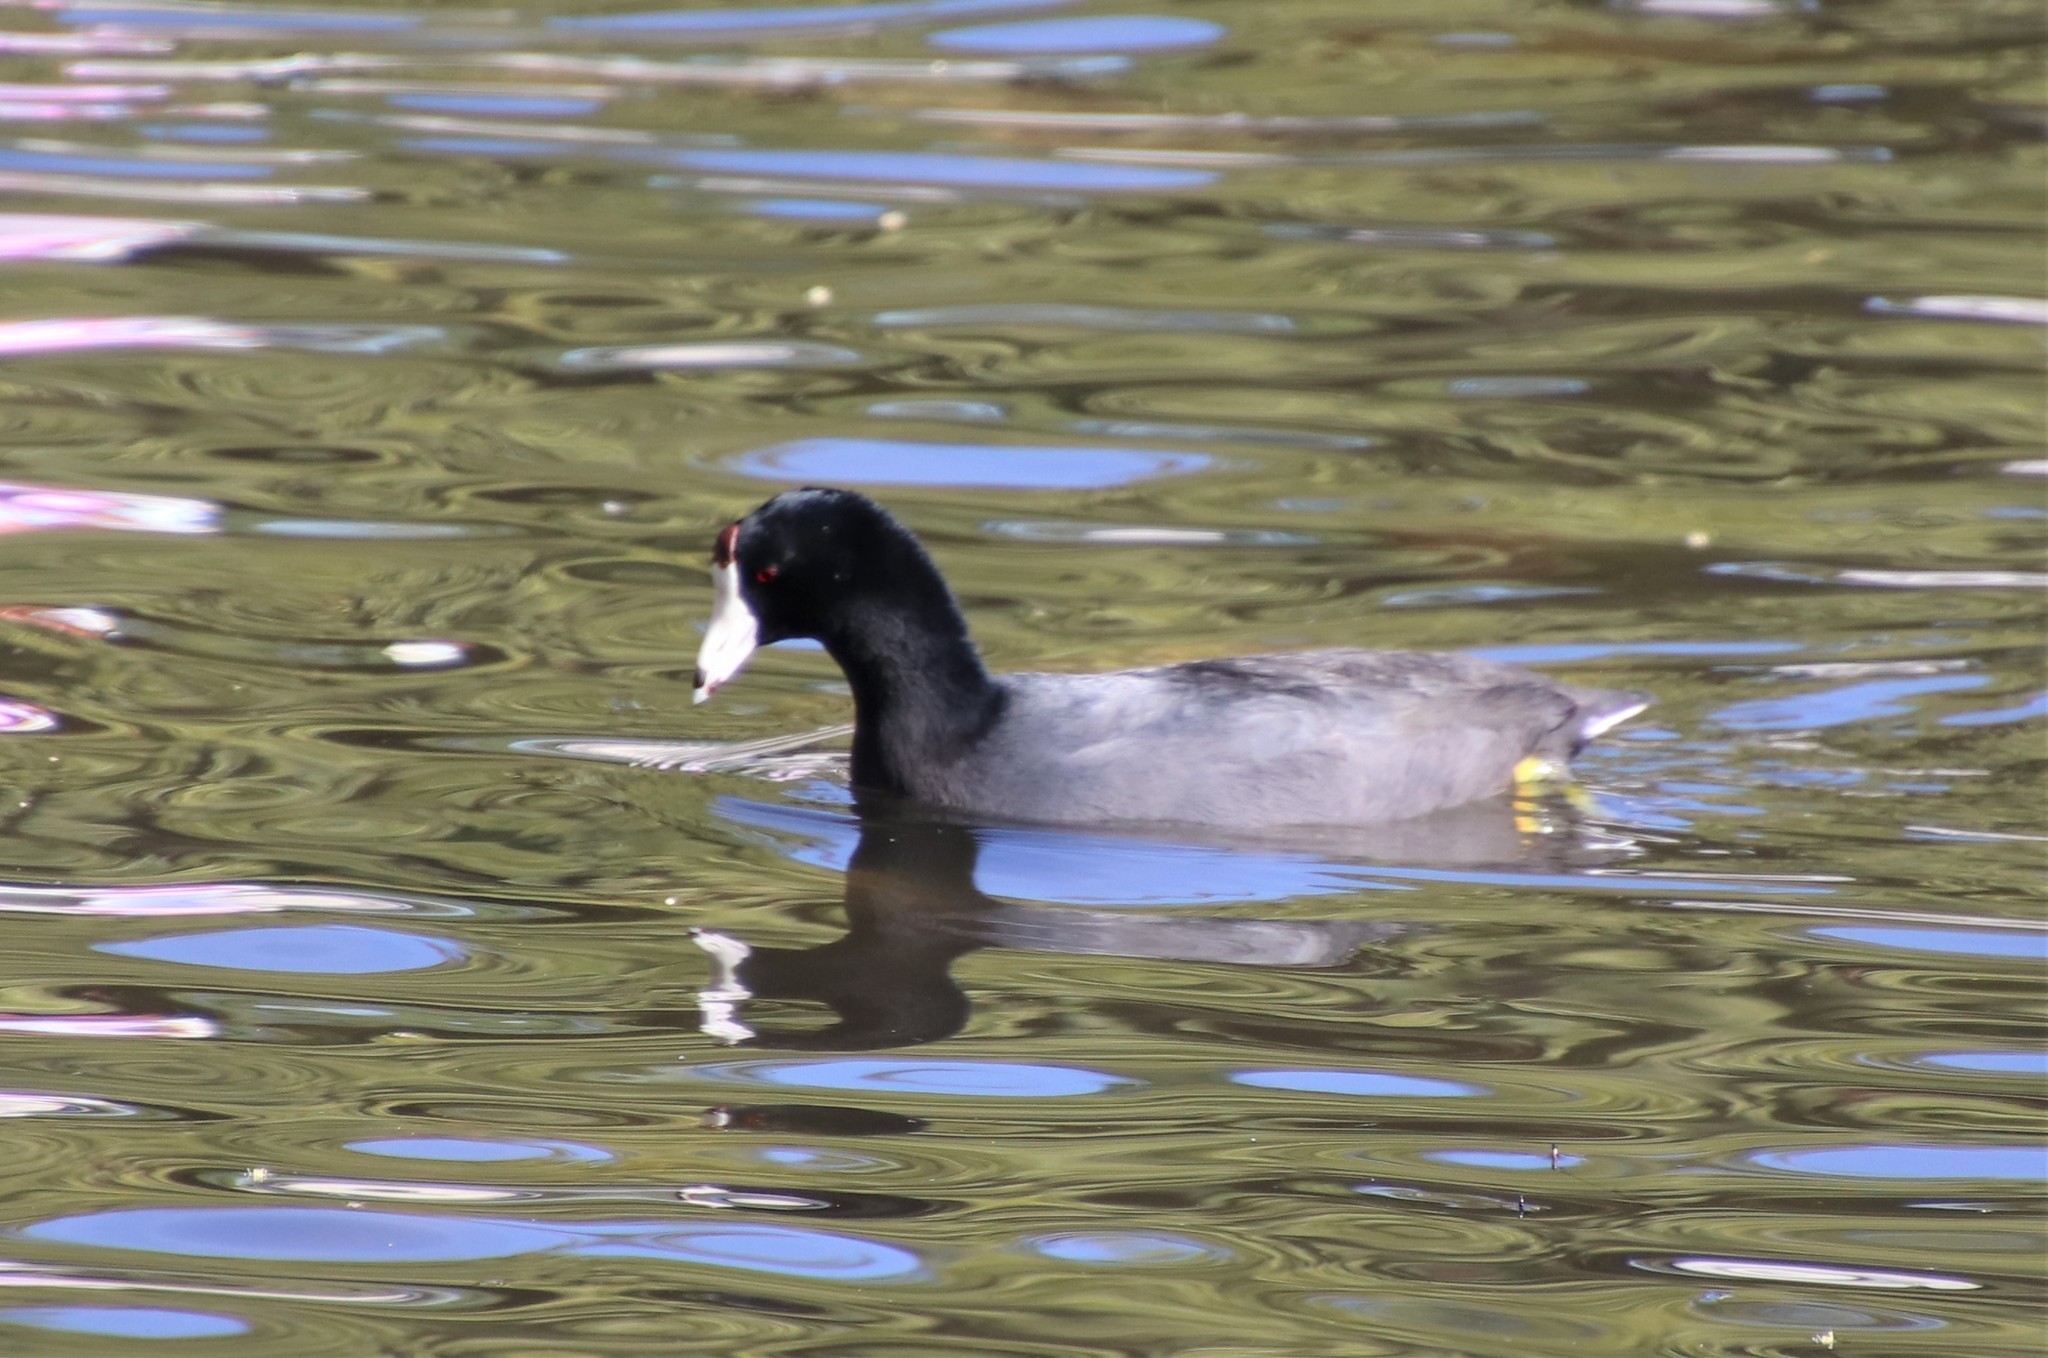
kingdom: Animalia
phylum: Chordata
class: Aves
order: Gruiformes
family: Rallidae
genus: Fulica
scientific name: Fulica americana
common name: American coot
